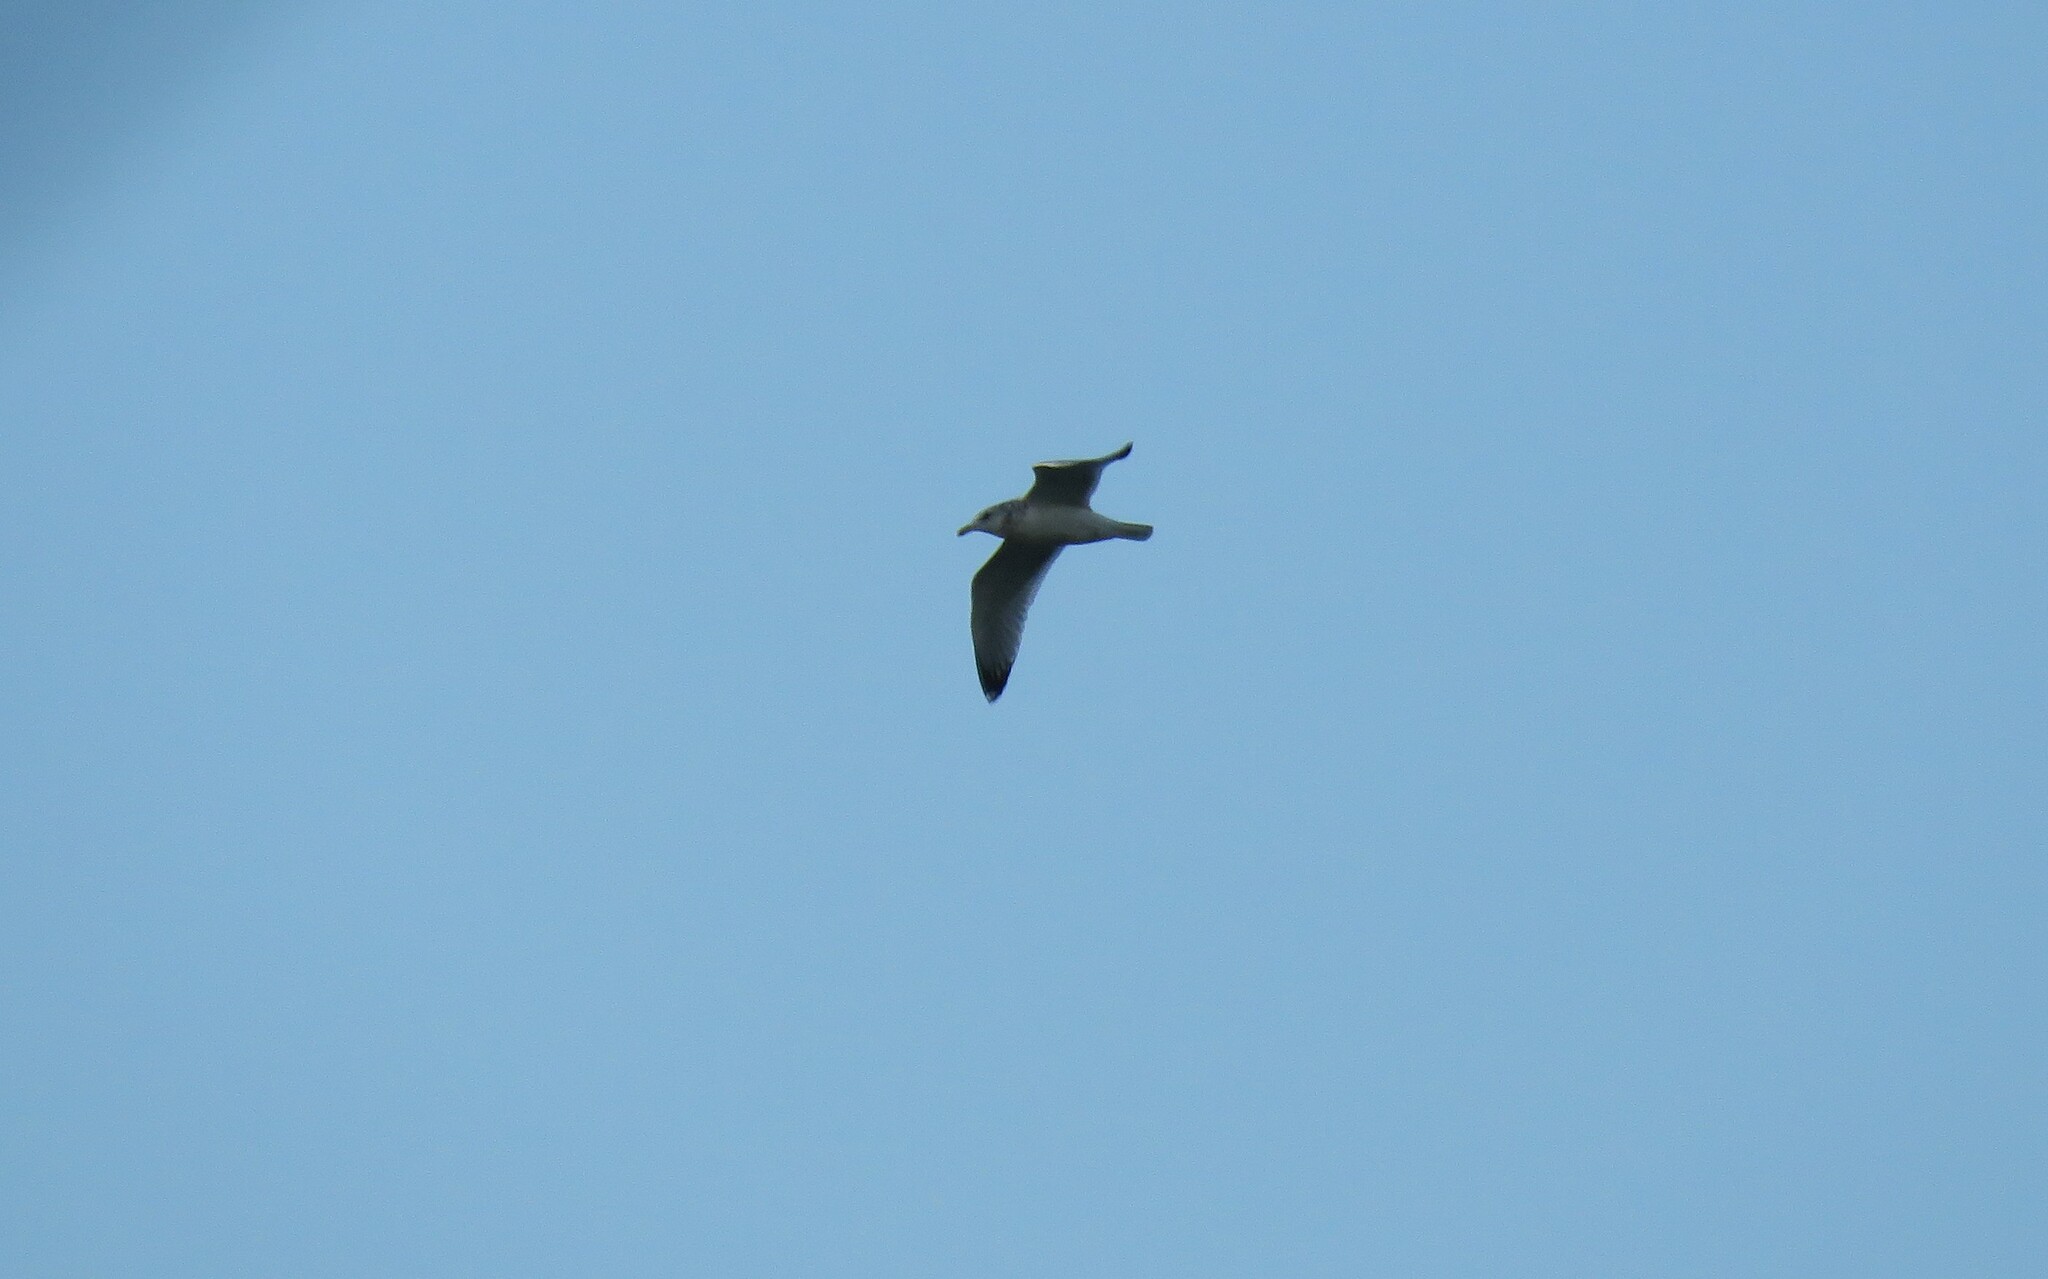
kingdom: Animalia
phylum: Chordata
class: Aves
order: Charadriiformes
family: Laridae
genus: Larus
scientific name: Larus argentatus
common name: Herring gull
